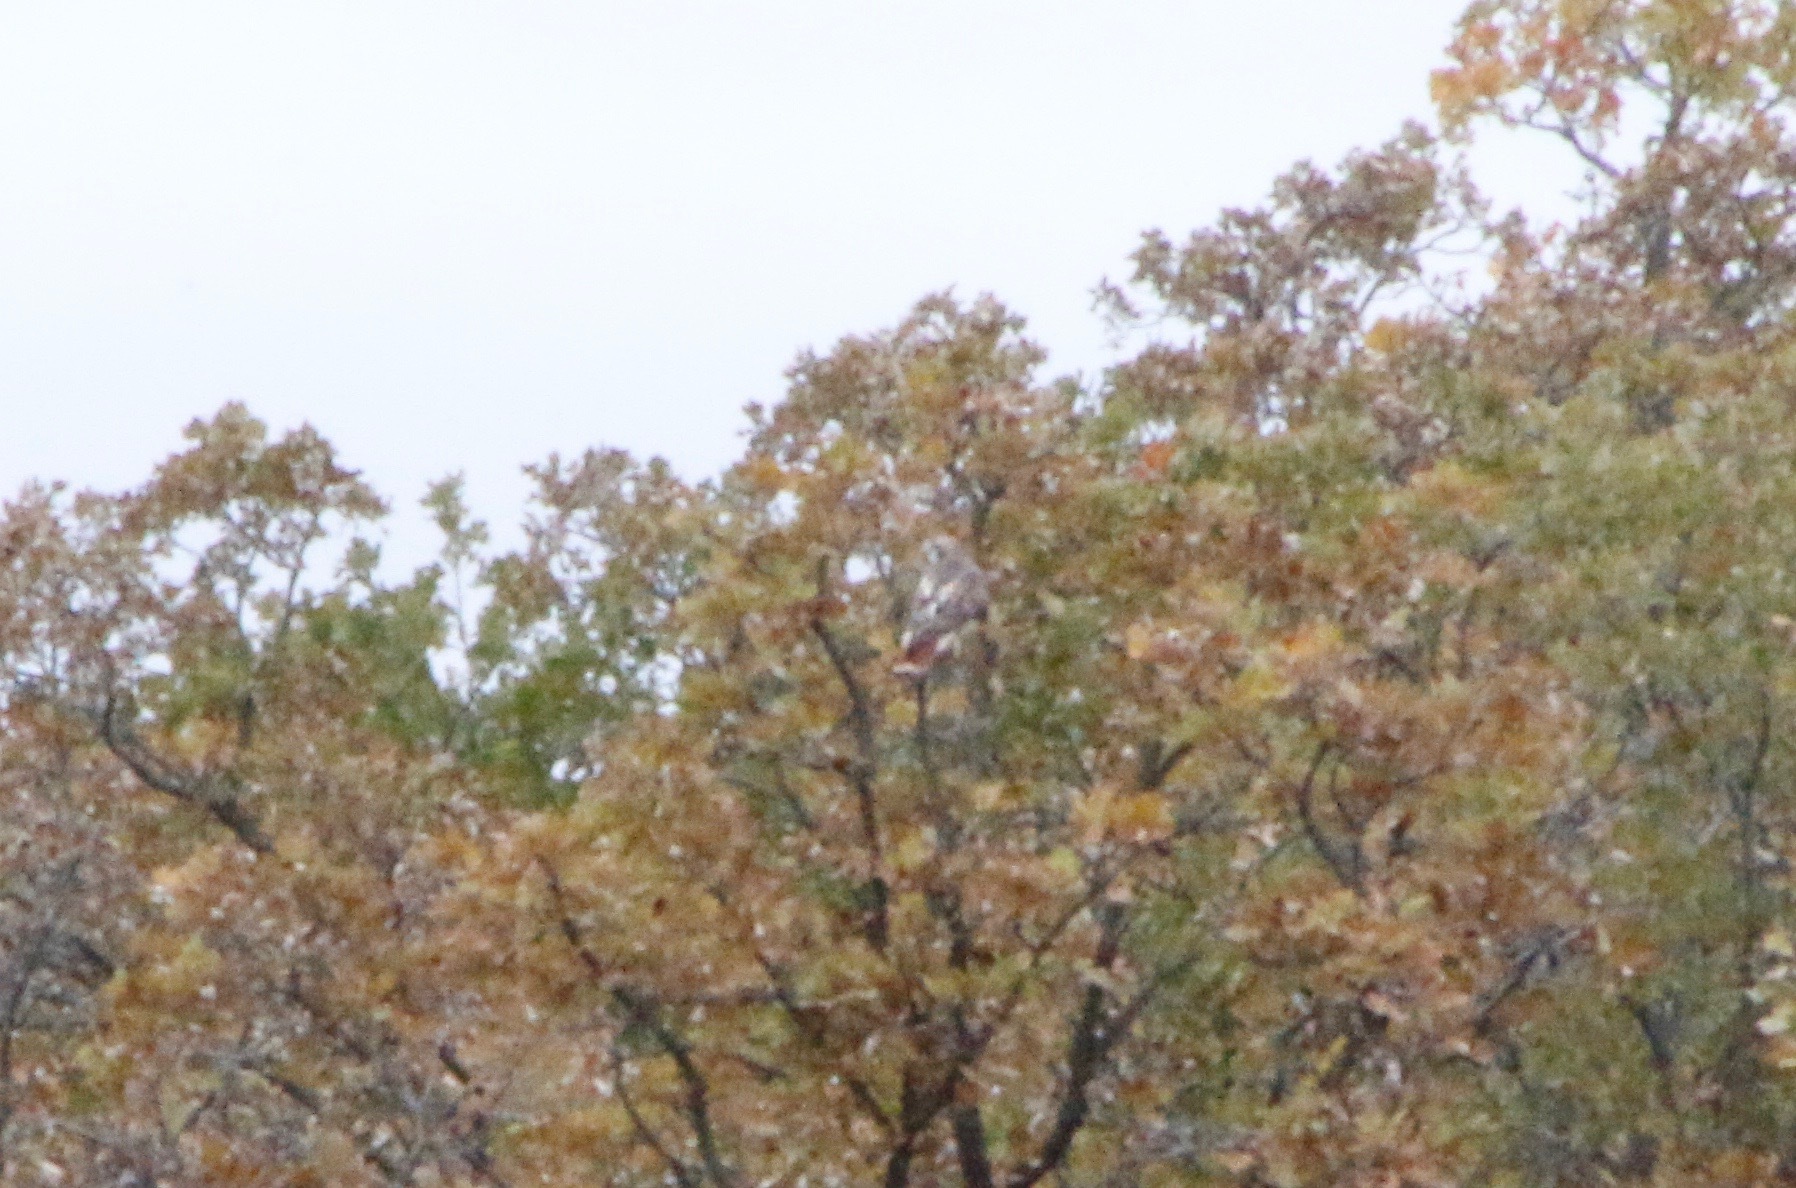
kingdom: Animalia
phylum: Chordata
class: Aves
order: Accipitriformes
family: Accipitridae
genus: Buteo
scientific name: Buteo jamaicensis
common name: Red-tailed hawk
